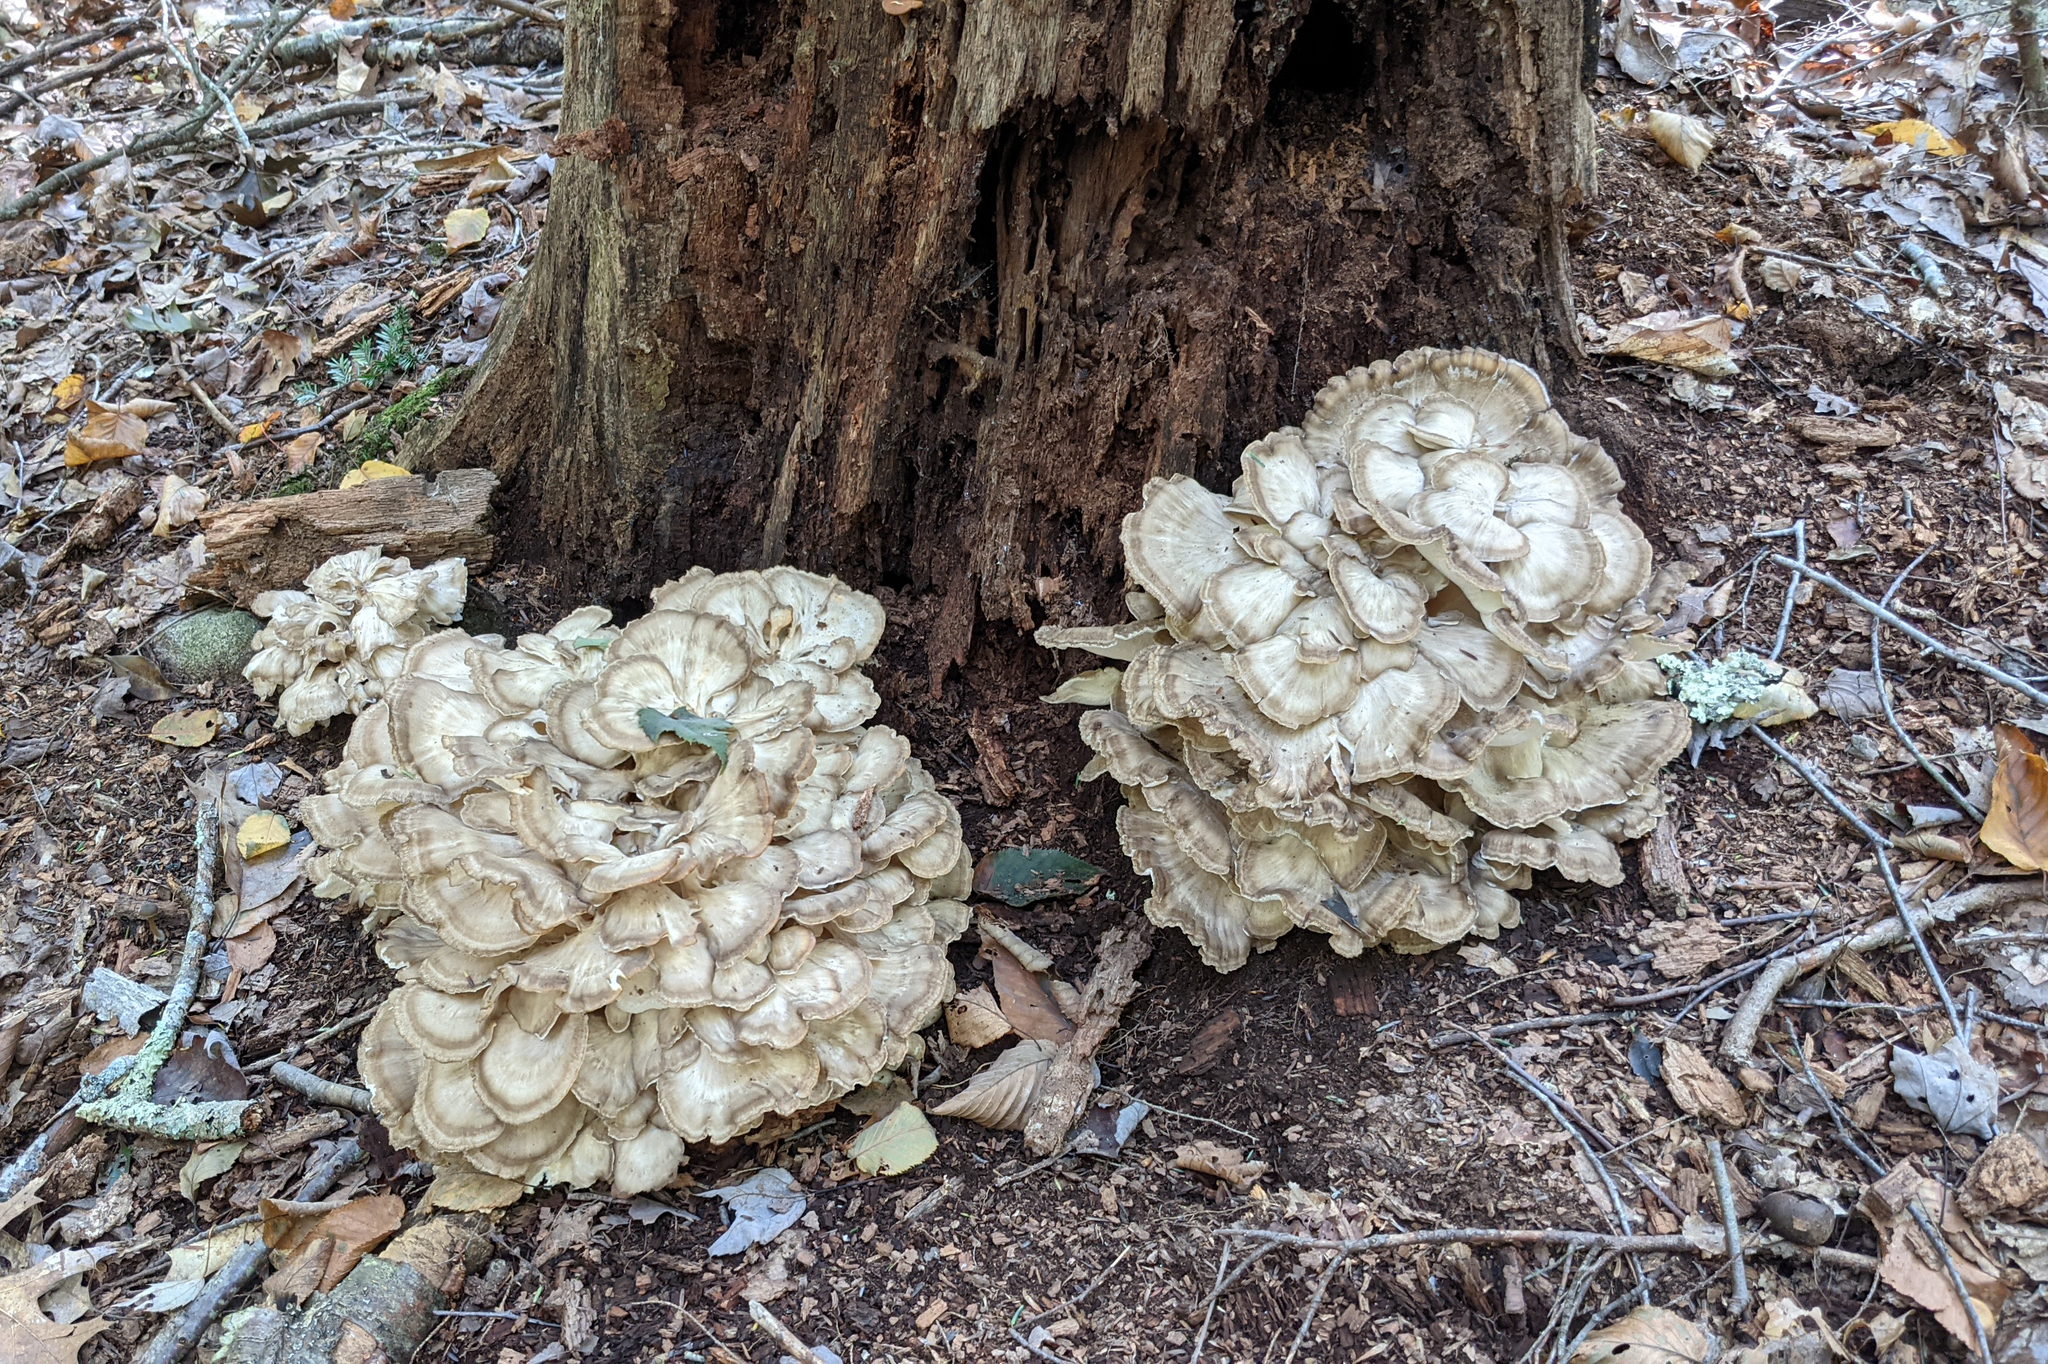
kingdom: Fungi
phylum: Basidiomycota
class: Agaricomycetes
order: Polyporales
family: Grifolaceae
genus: Grifola
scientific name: Grifola frondosa
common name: Hen of the woods
